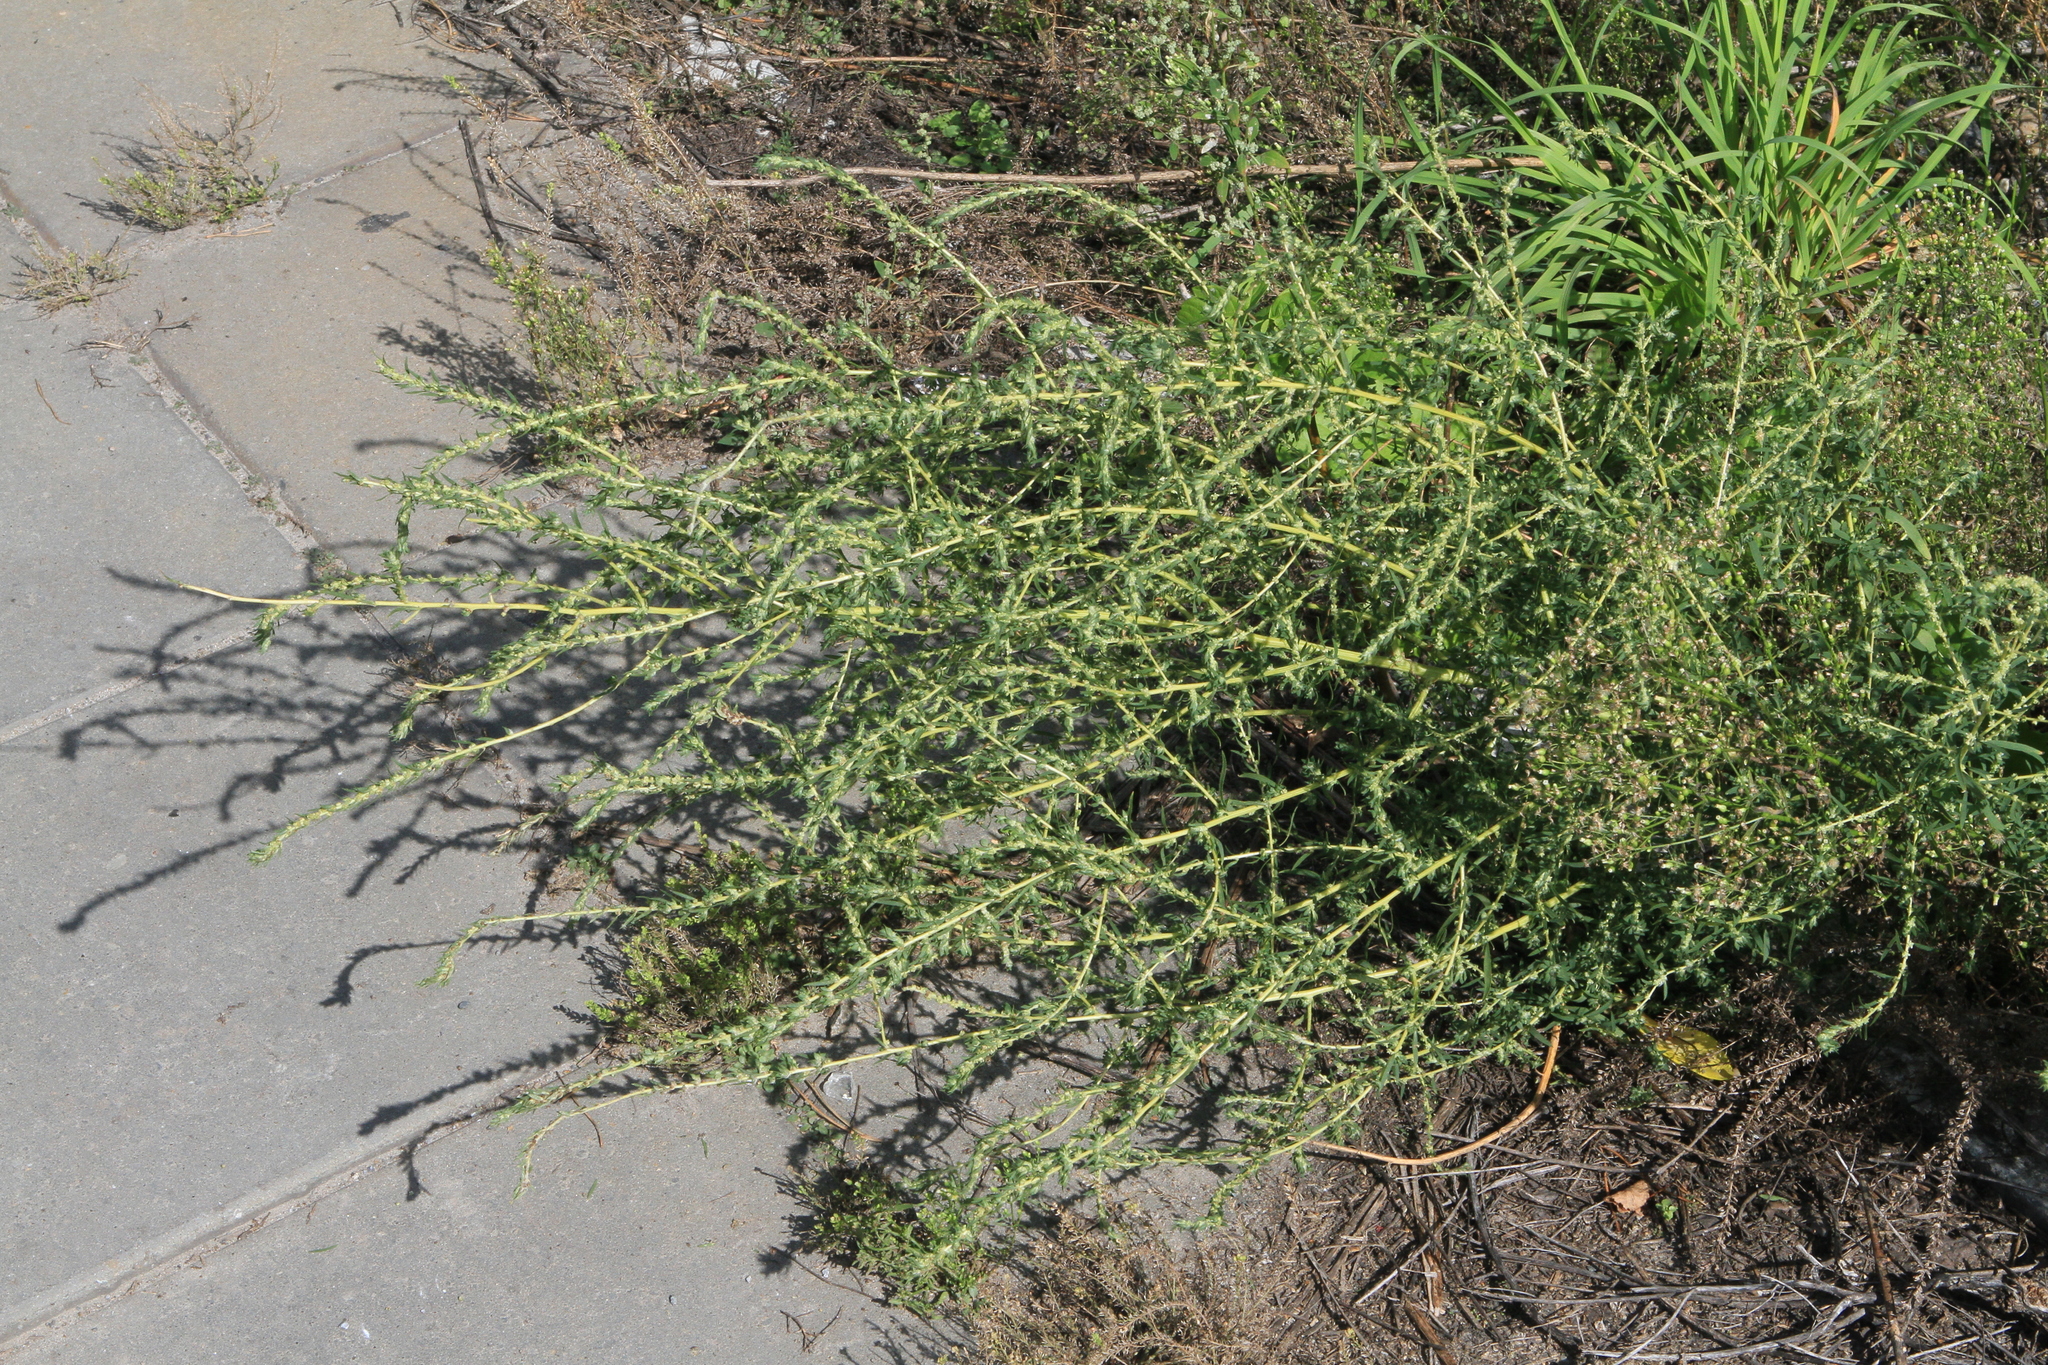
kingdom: Plantae
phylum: Tracheophyta
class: Magnoliopsida
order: Caryophyllales
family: Amaranthaceae
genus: Bassia
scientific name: Bassia scoparia
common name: Belvedere
